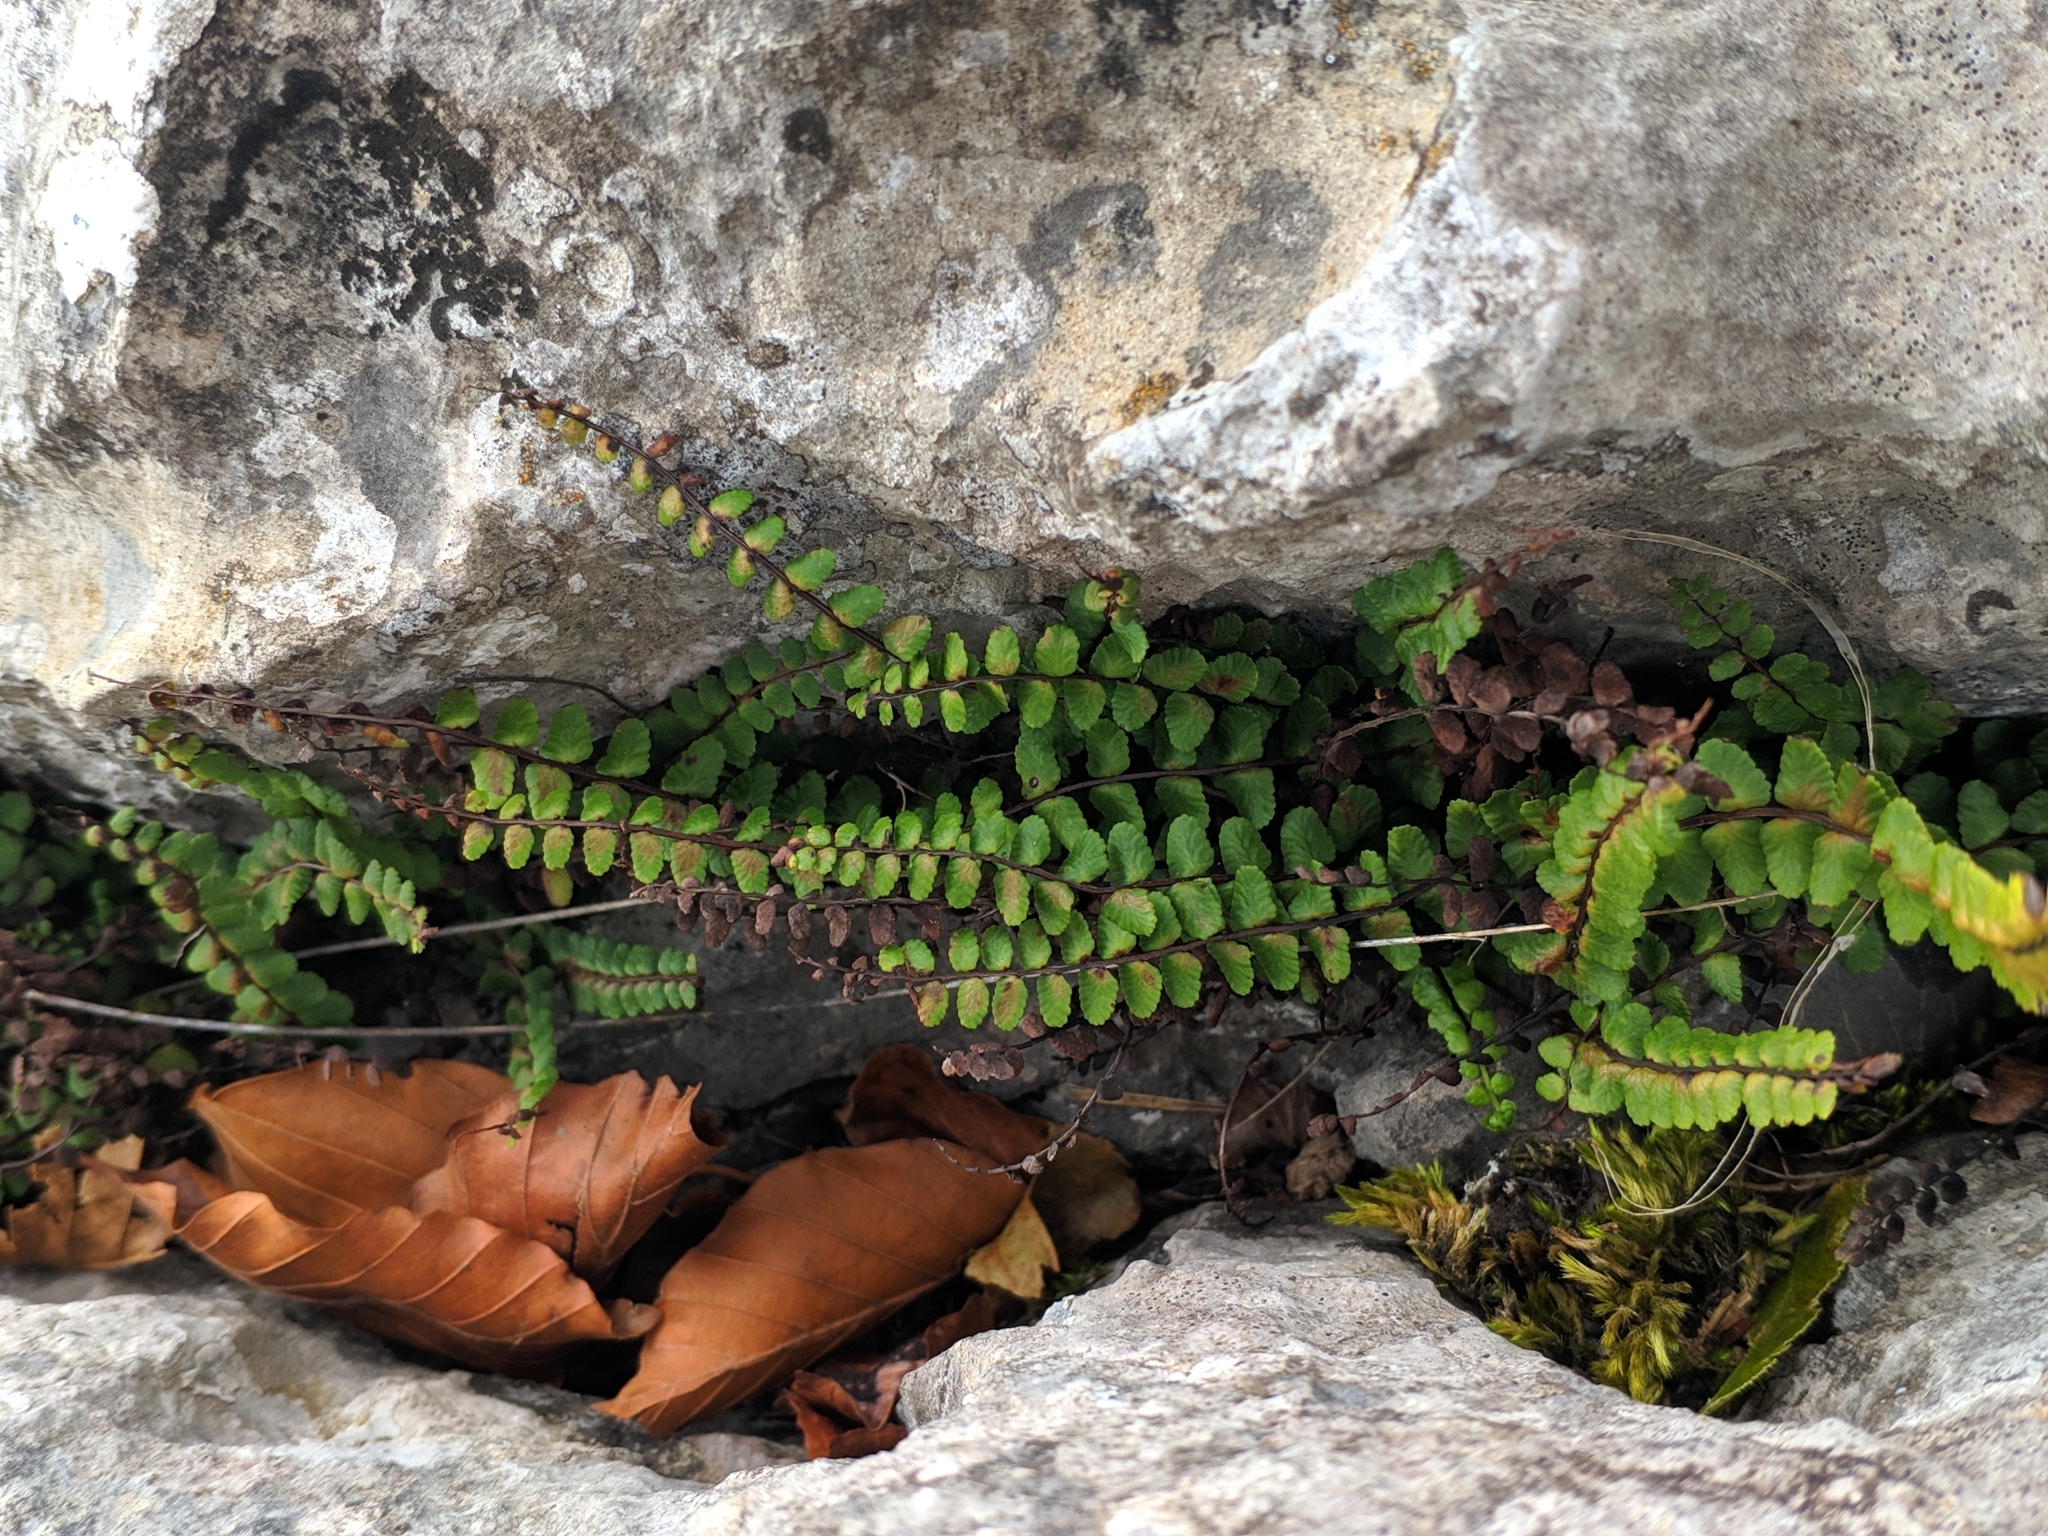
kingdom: Plantae
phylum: Tracheophyta
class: Polypodiopsida
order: Polypodiales
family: Aspleniaceae
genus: Asplenium
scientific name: Asplenium trichomanes
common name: Maidenhair spleenwort
